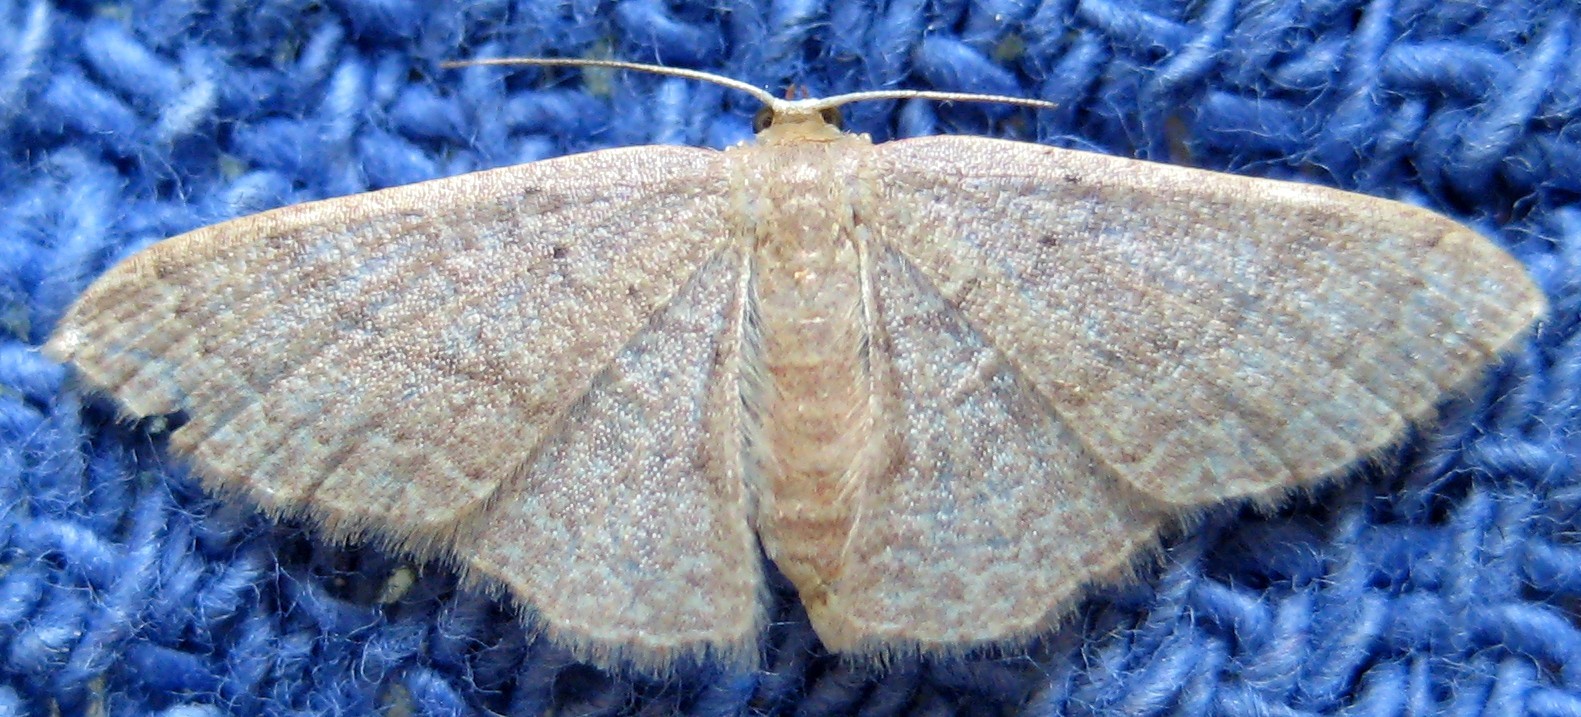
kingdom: Animalia
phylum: Arthropoda
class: Insecta
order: Lepidoptera
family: Geometridae
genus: Pleuroprucha
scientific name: Pleuroprucha insulsaria
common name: Common tan wave
